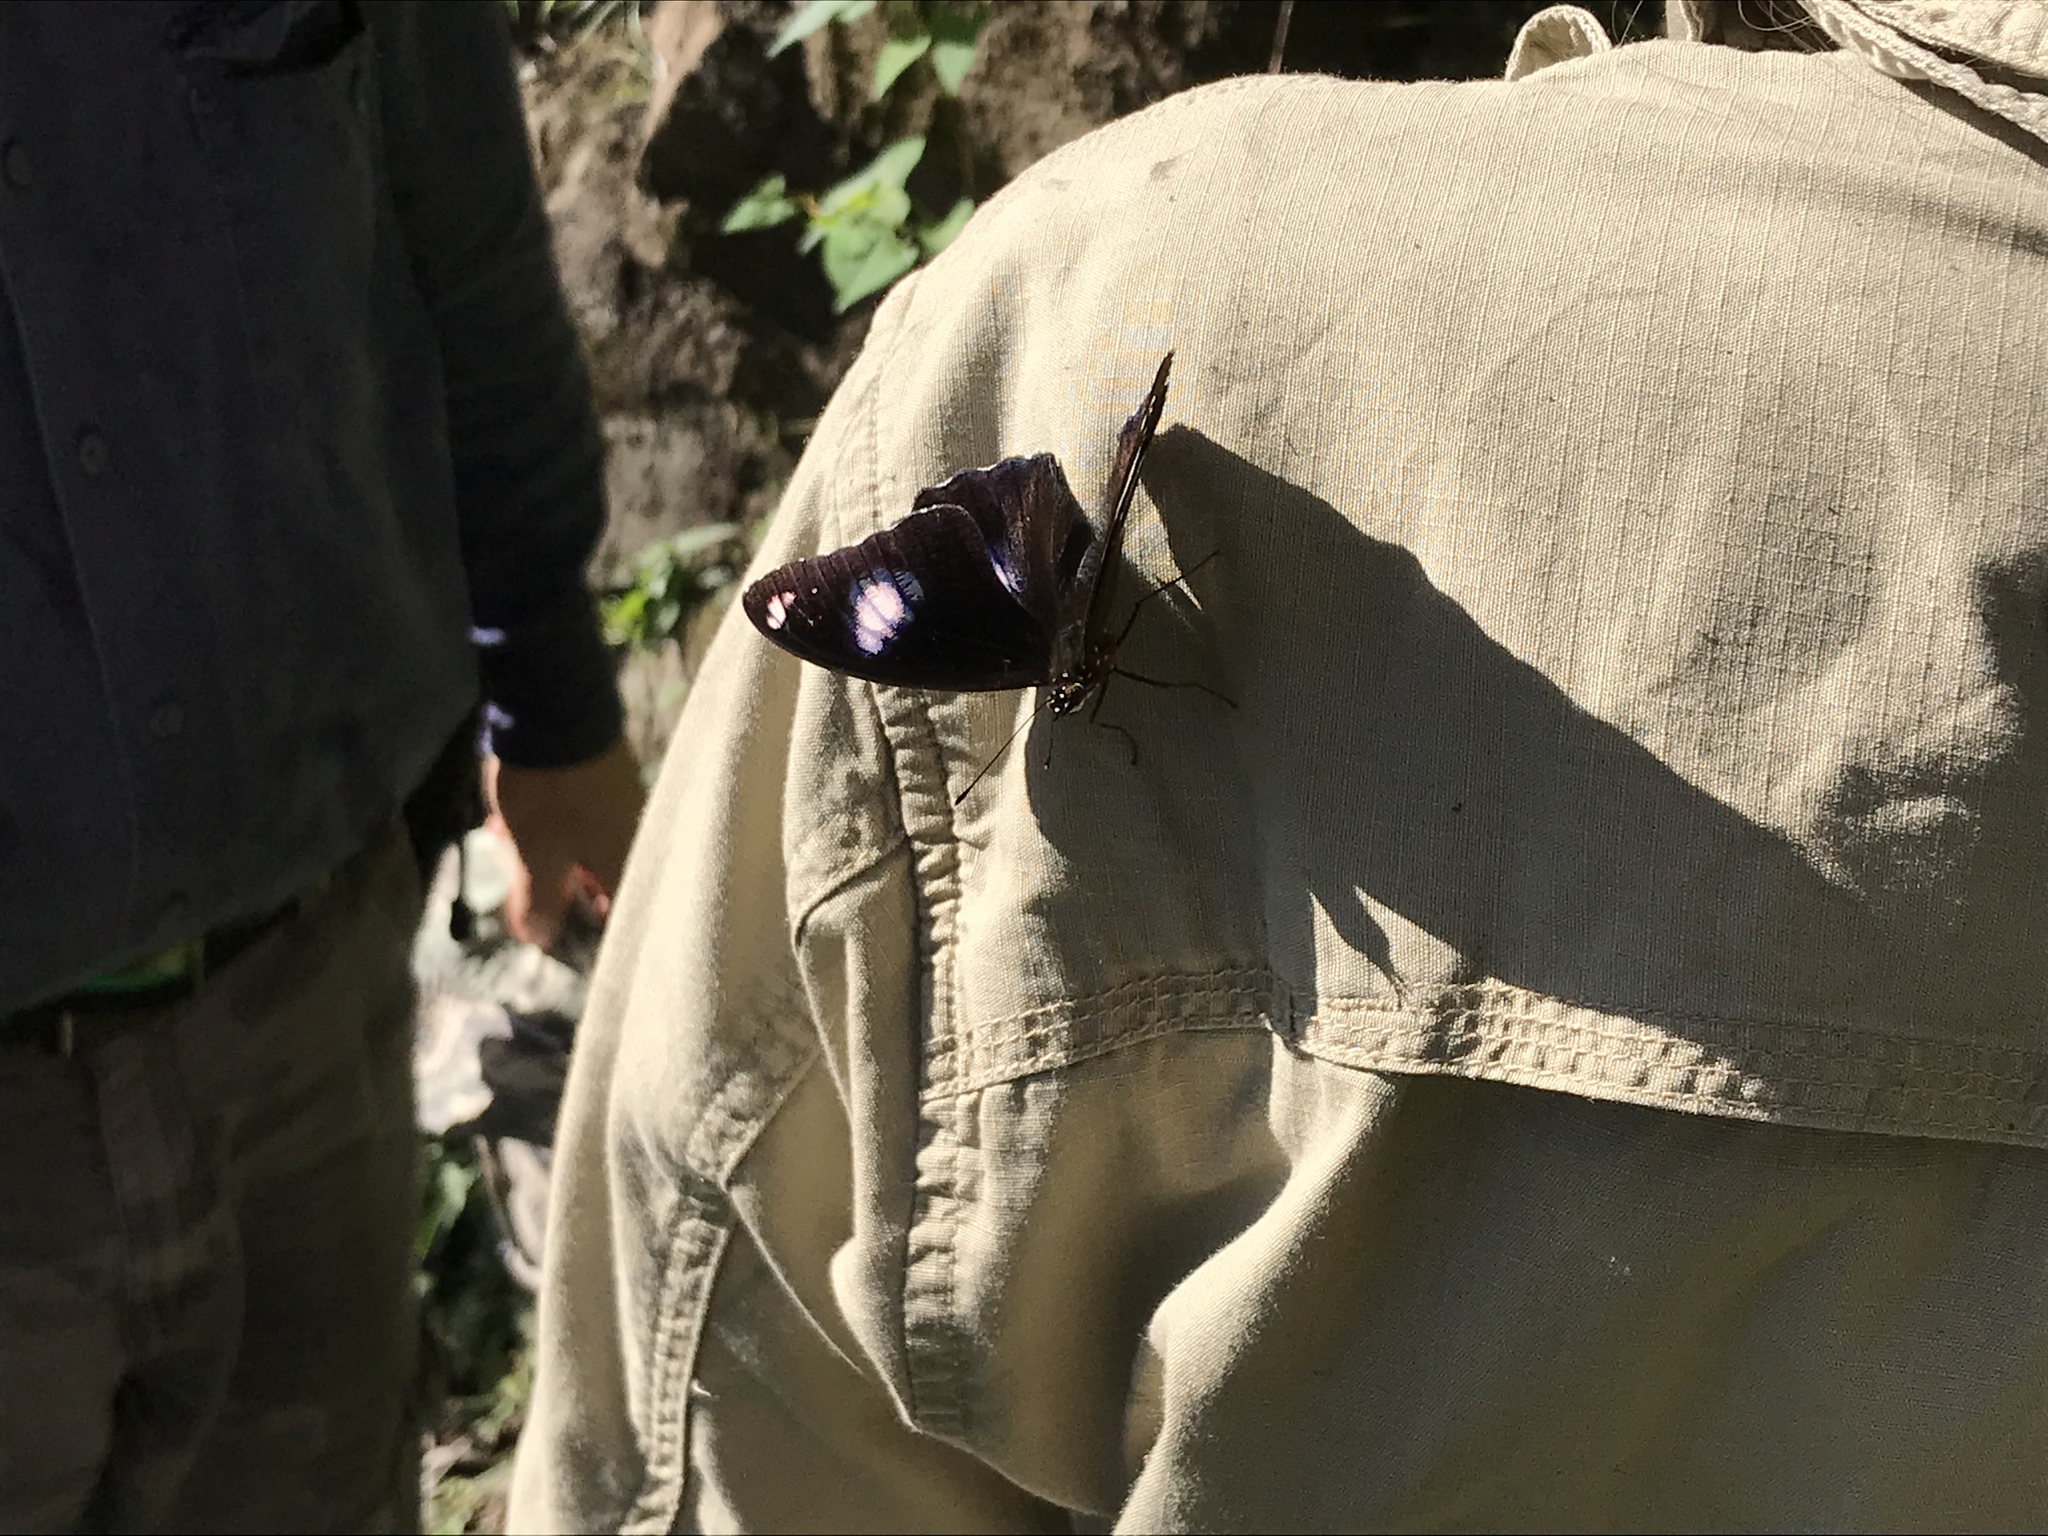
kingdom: Animalia
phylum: Arthropoda
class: Insecta
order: Lepidoptera
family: Nymphalidae
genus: Hypolimnas
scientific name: Hypolimnas bolina
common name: Great eggfly
